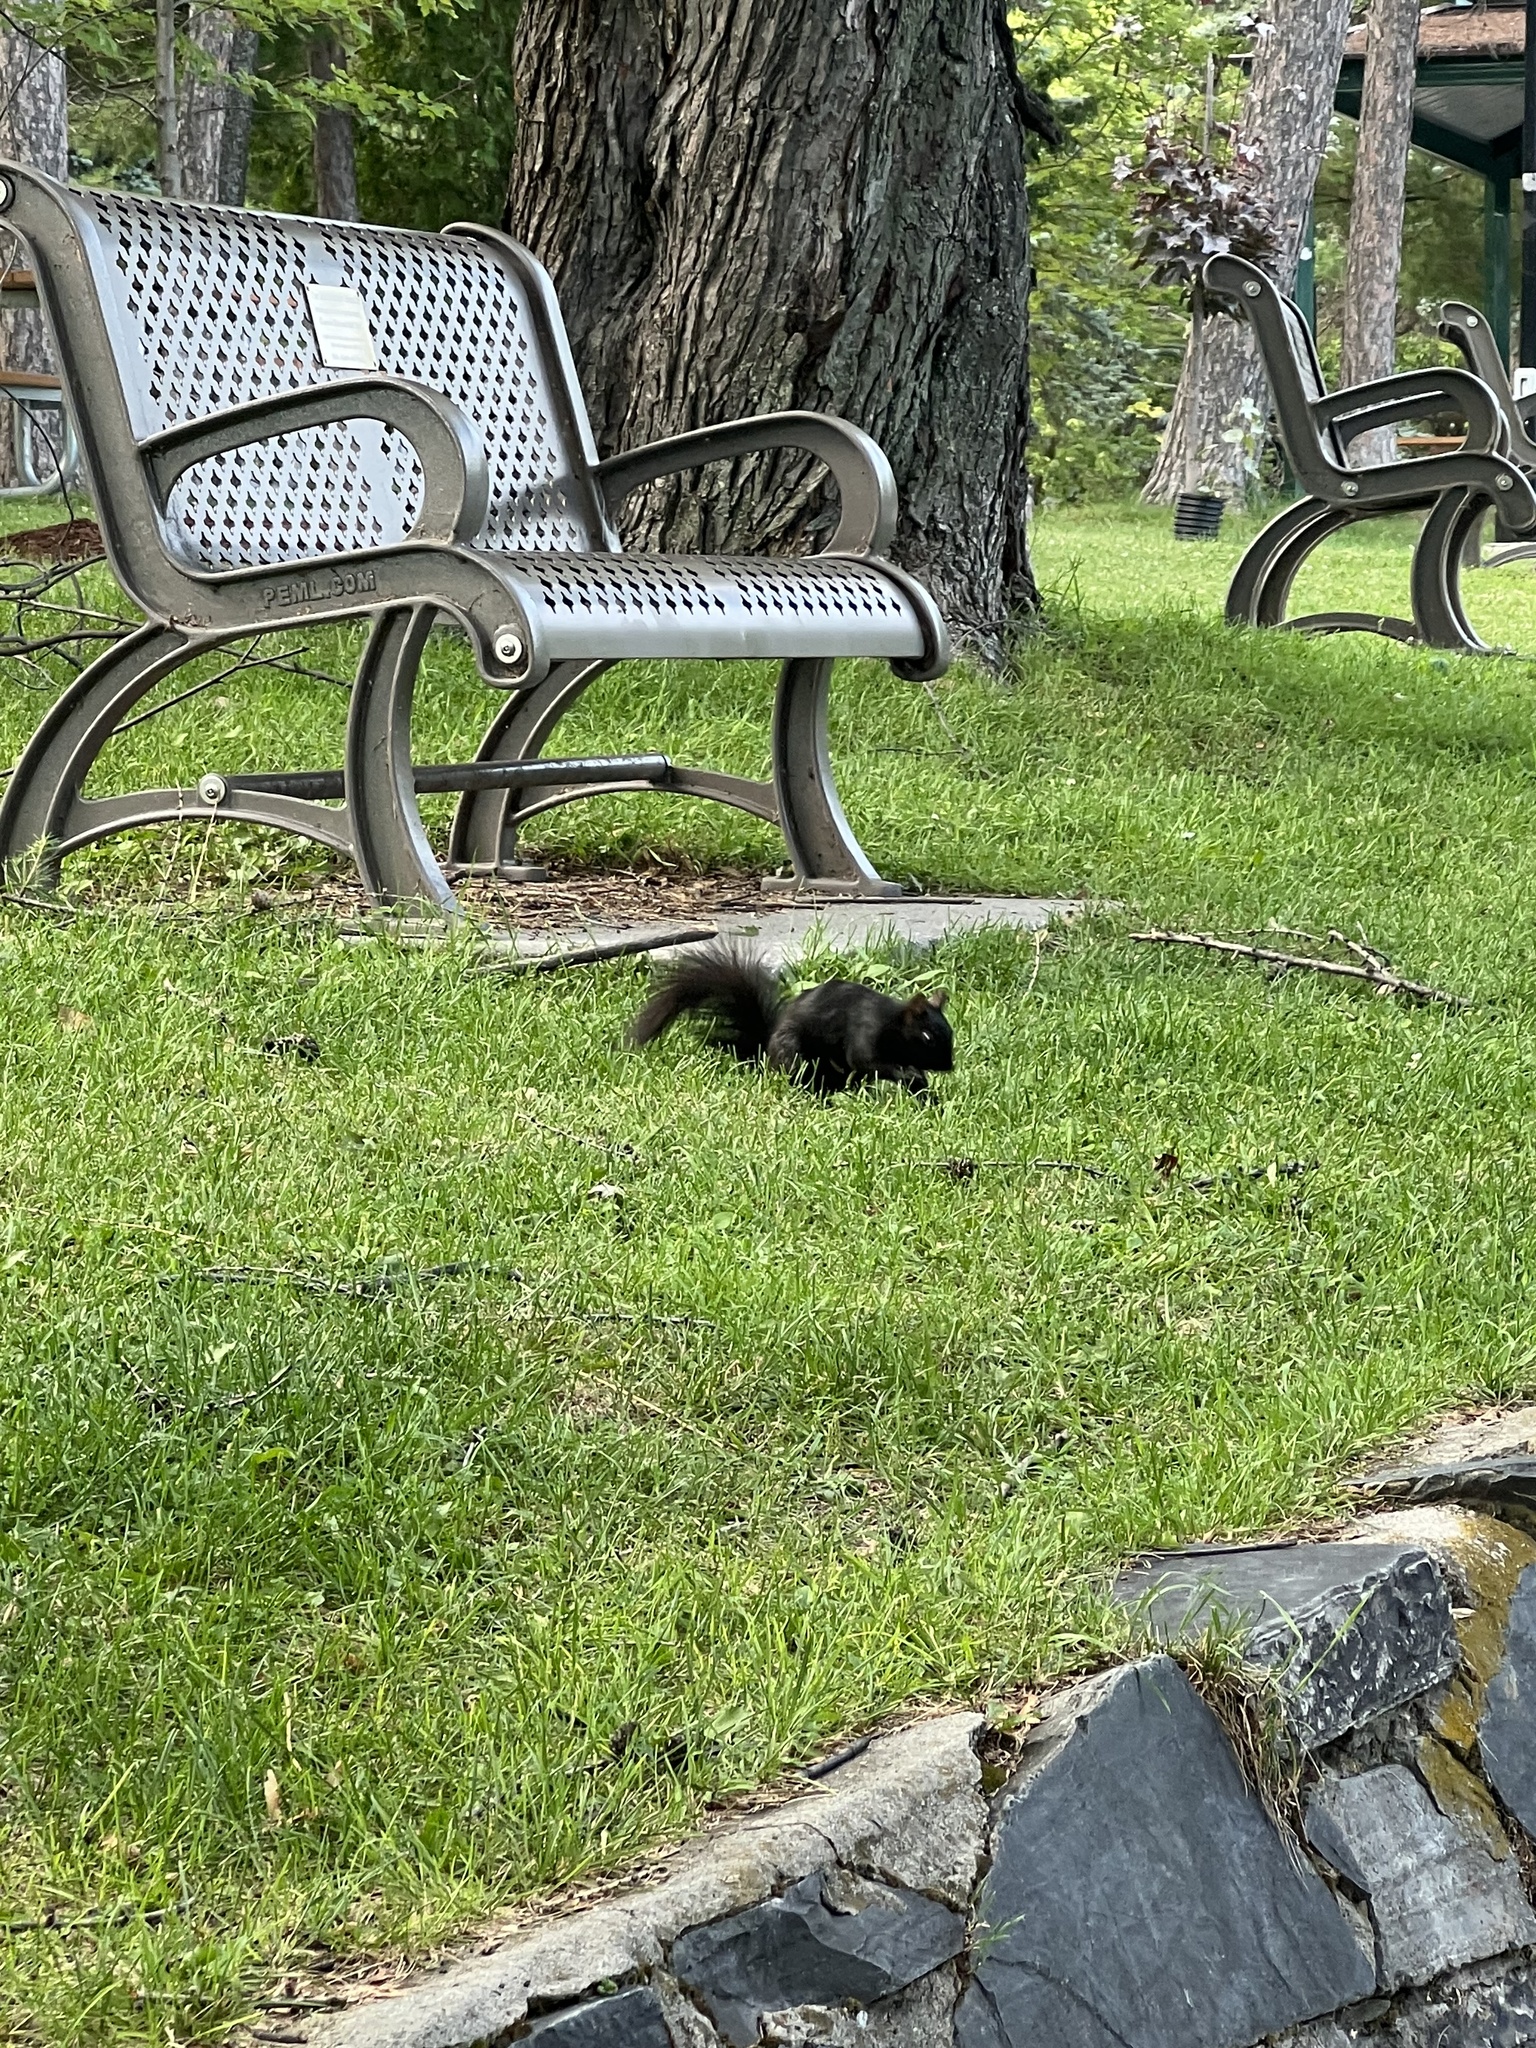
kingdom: Animalia
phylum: Chordata
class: Mammalia
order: Rodentia
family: Sciuridae
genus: Sciurus
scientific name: Sciurus carolinensis
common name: Eastern gray squirrel
